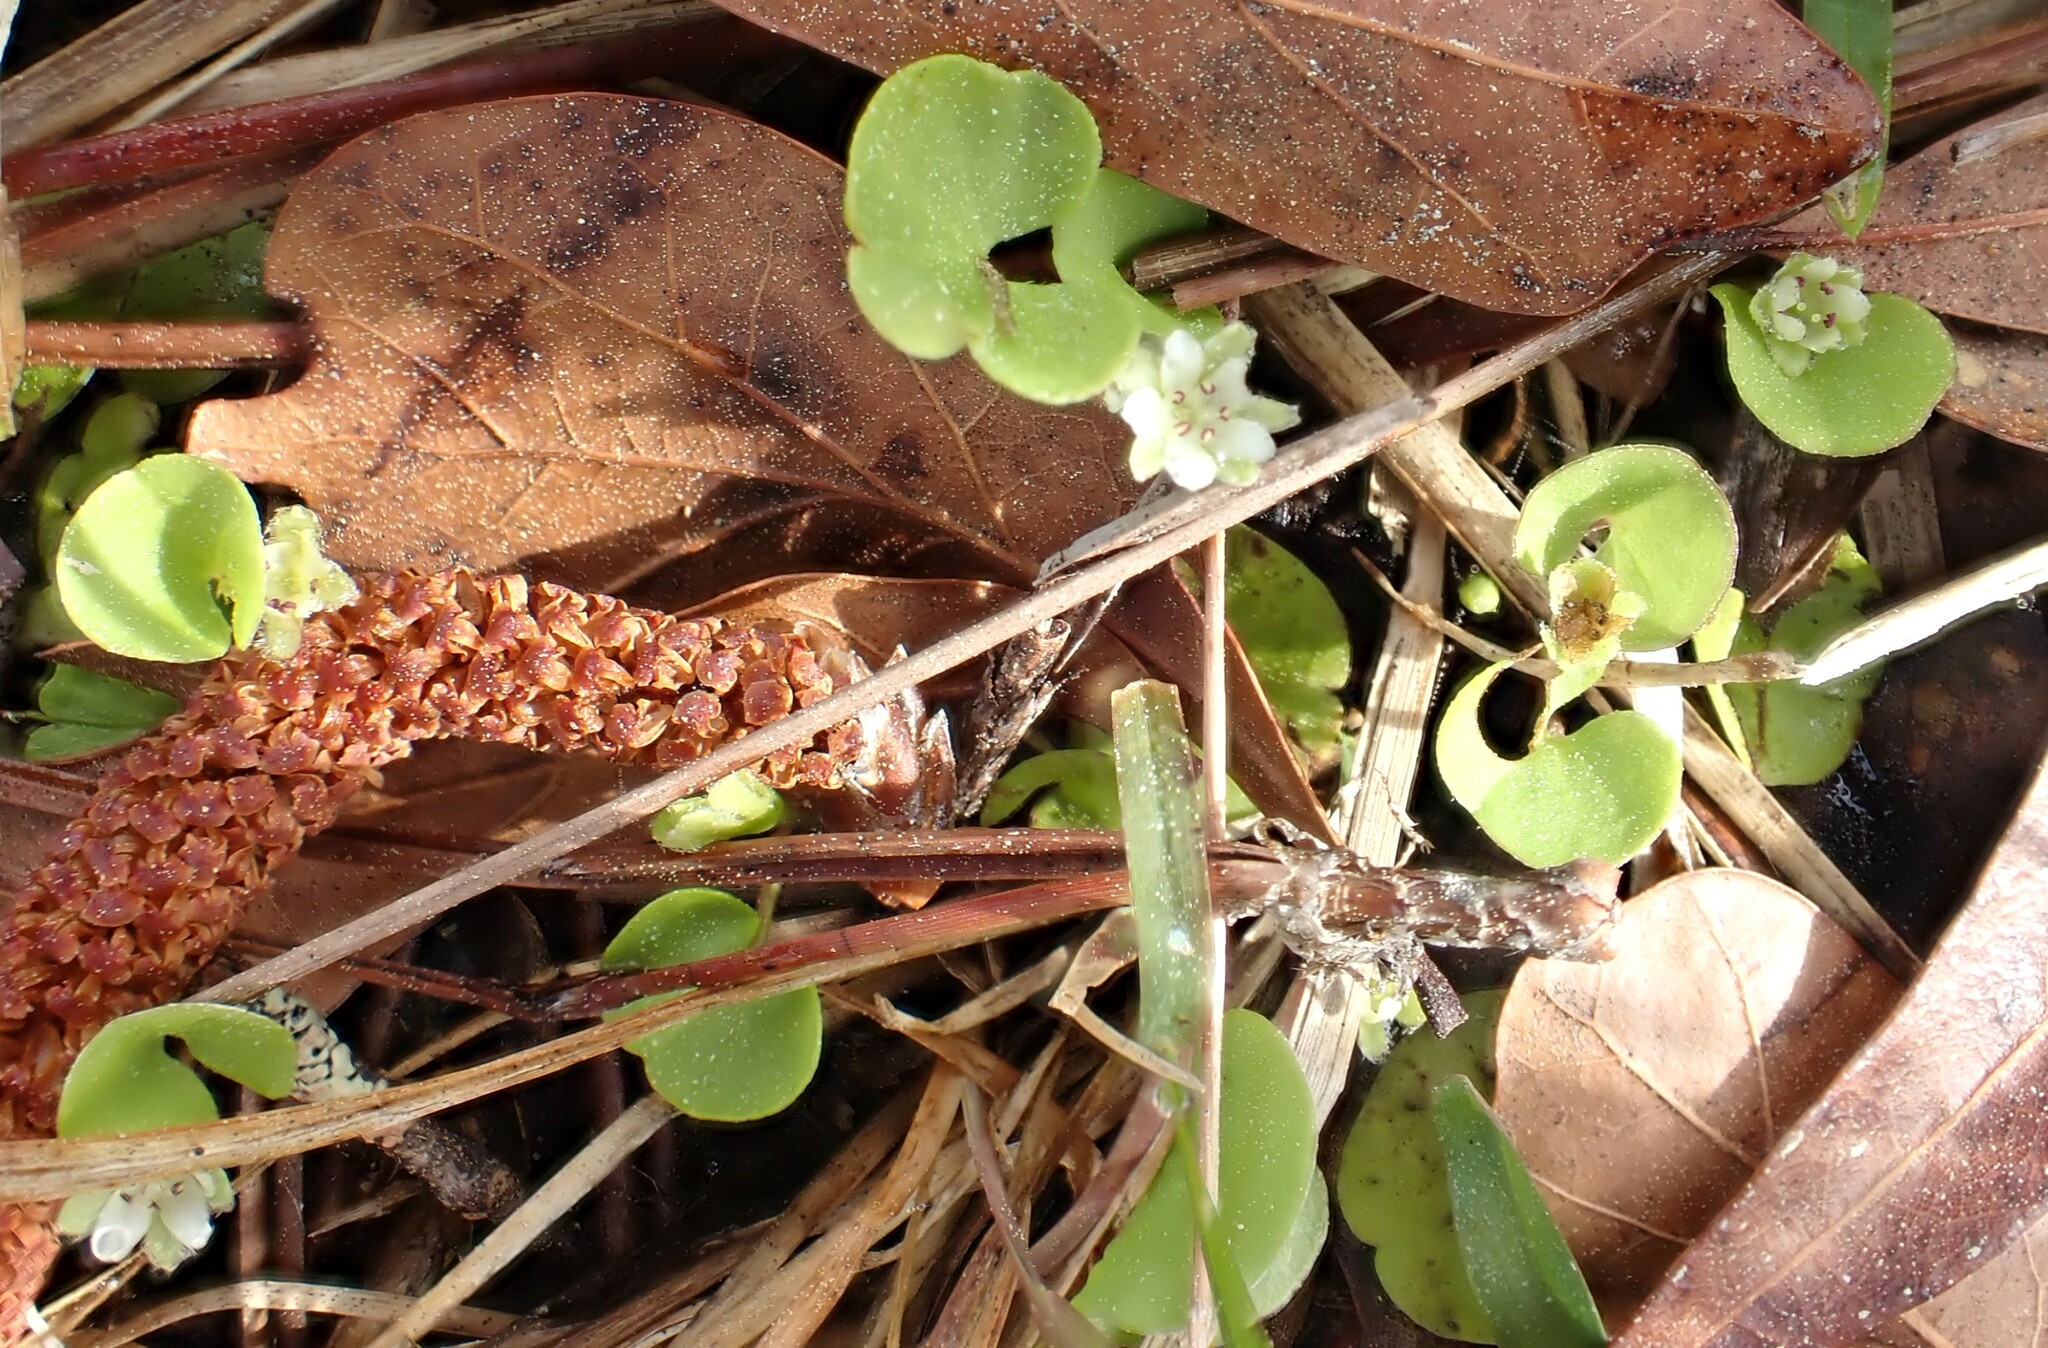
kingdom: Plantae
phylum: Tracheophyta
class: Magnoliopsida
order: Solanales
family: Convolvulaceae
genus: Dichondra
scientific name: Dichondra carolinensis
